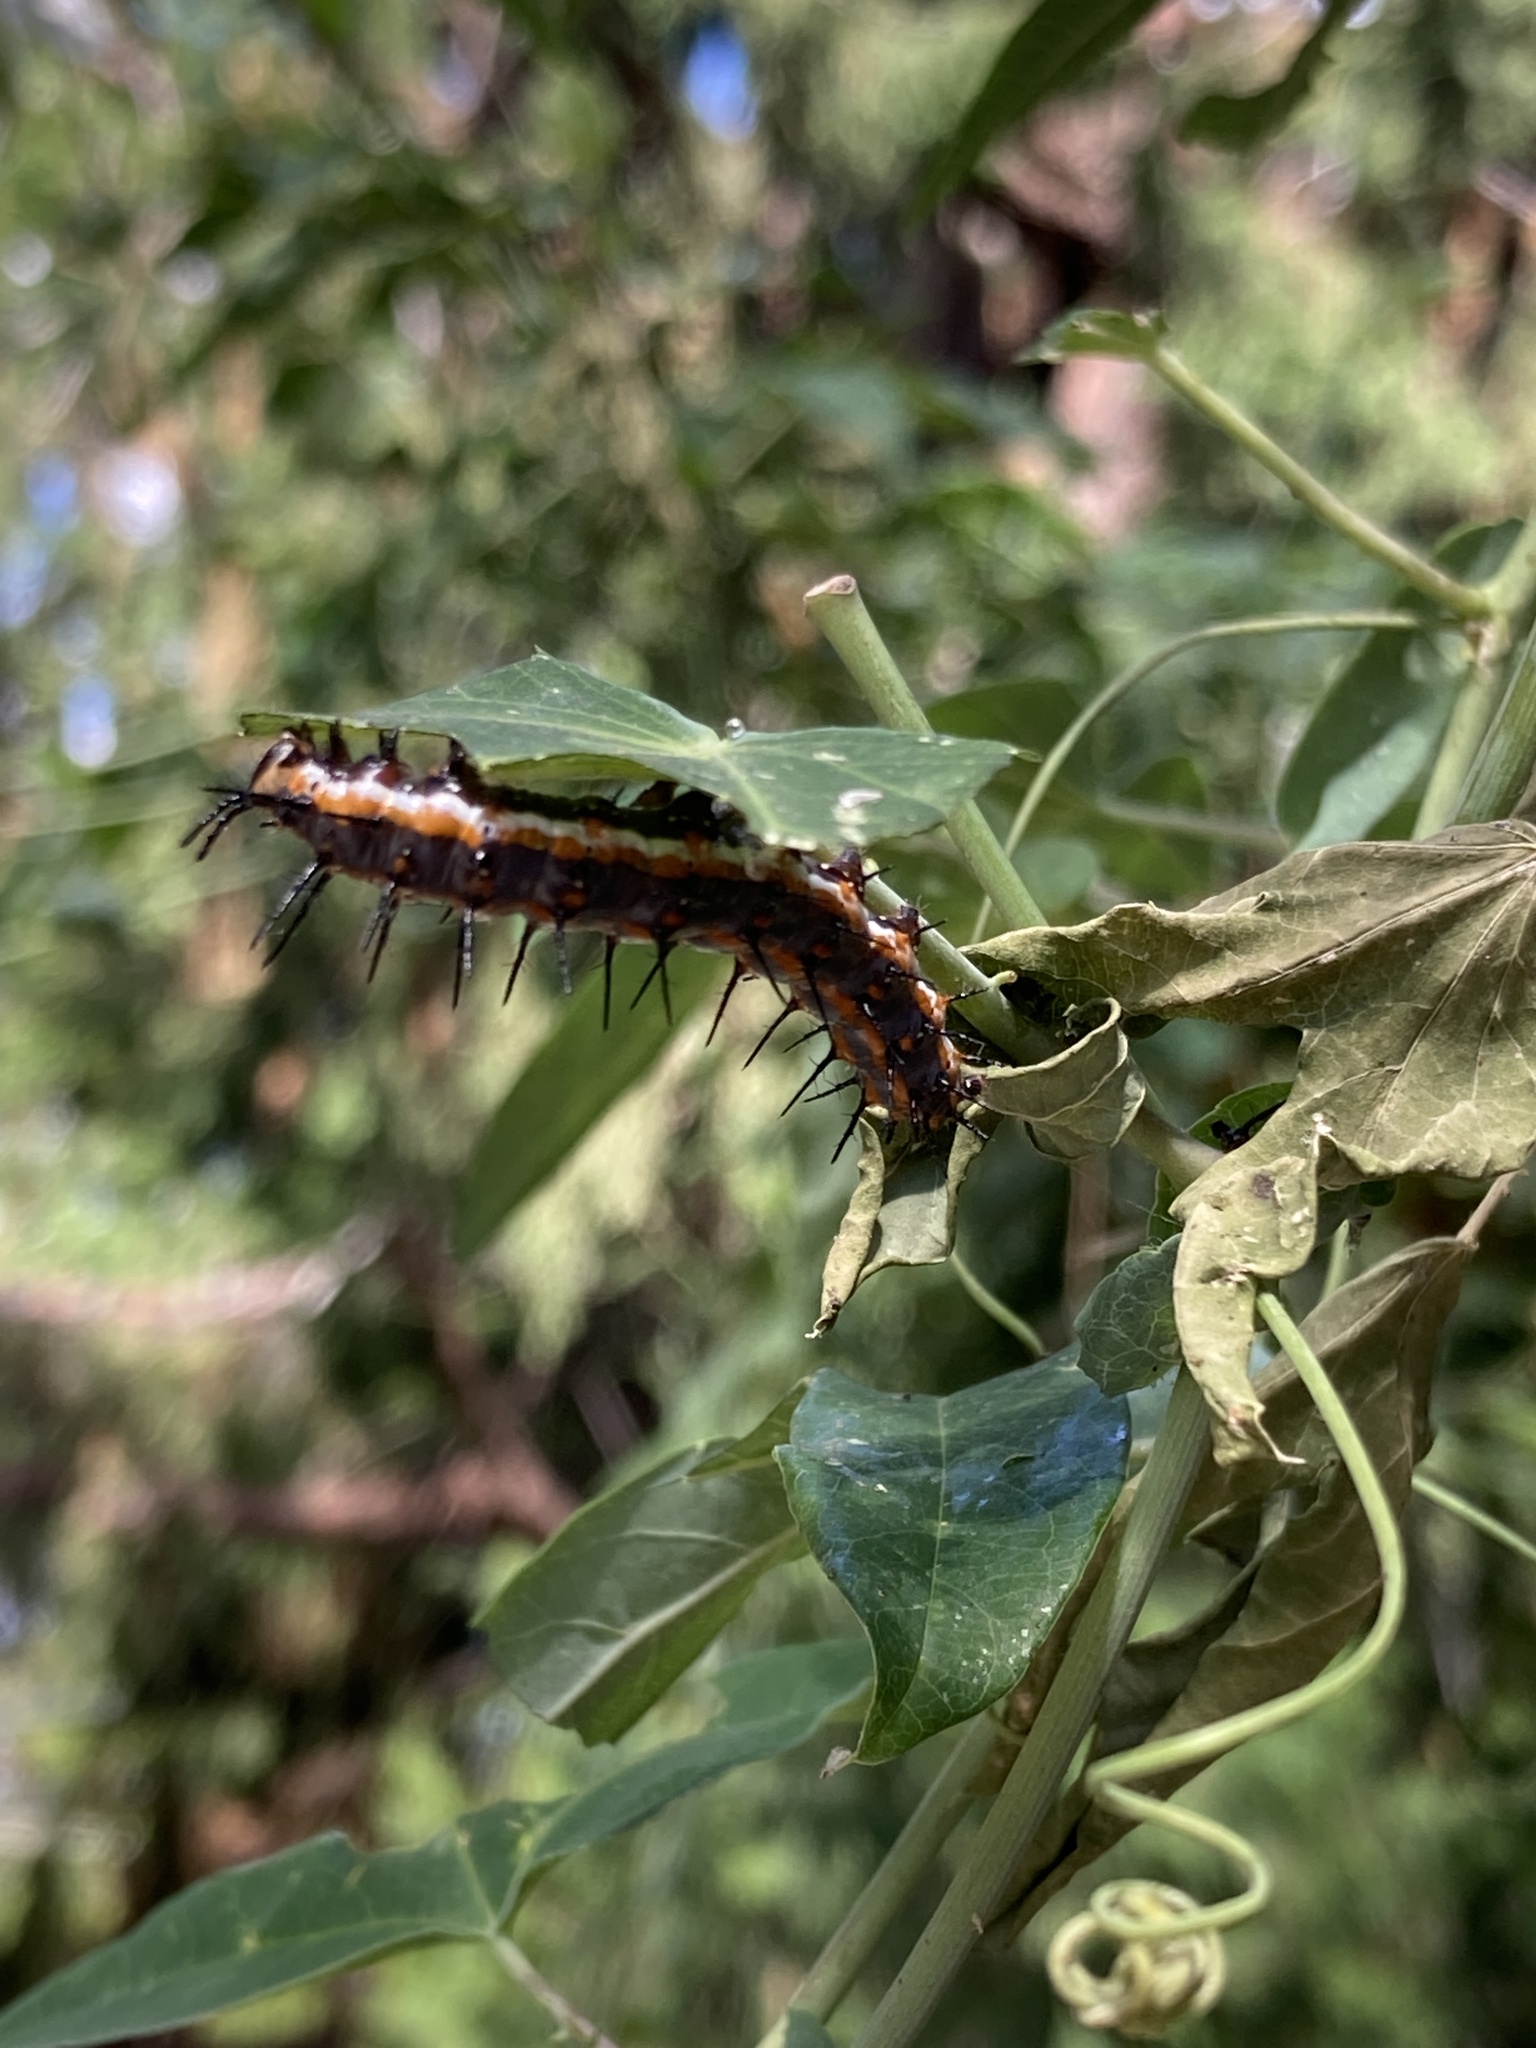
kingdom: Animalia
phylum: Arthropoda
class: Insecta
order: Lepidoptera
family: Nymphalidae
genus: Dione
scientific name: Dione vanillae
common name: Gulf fritillary
